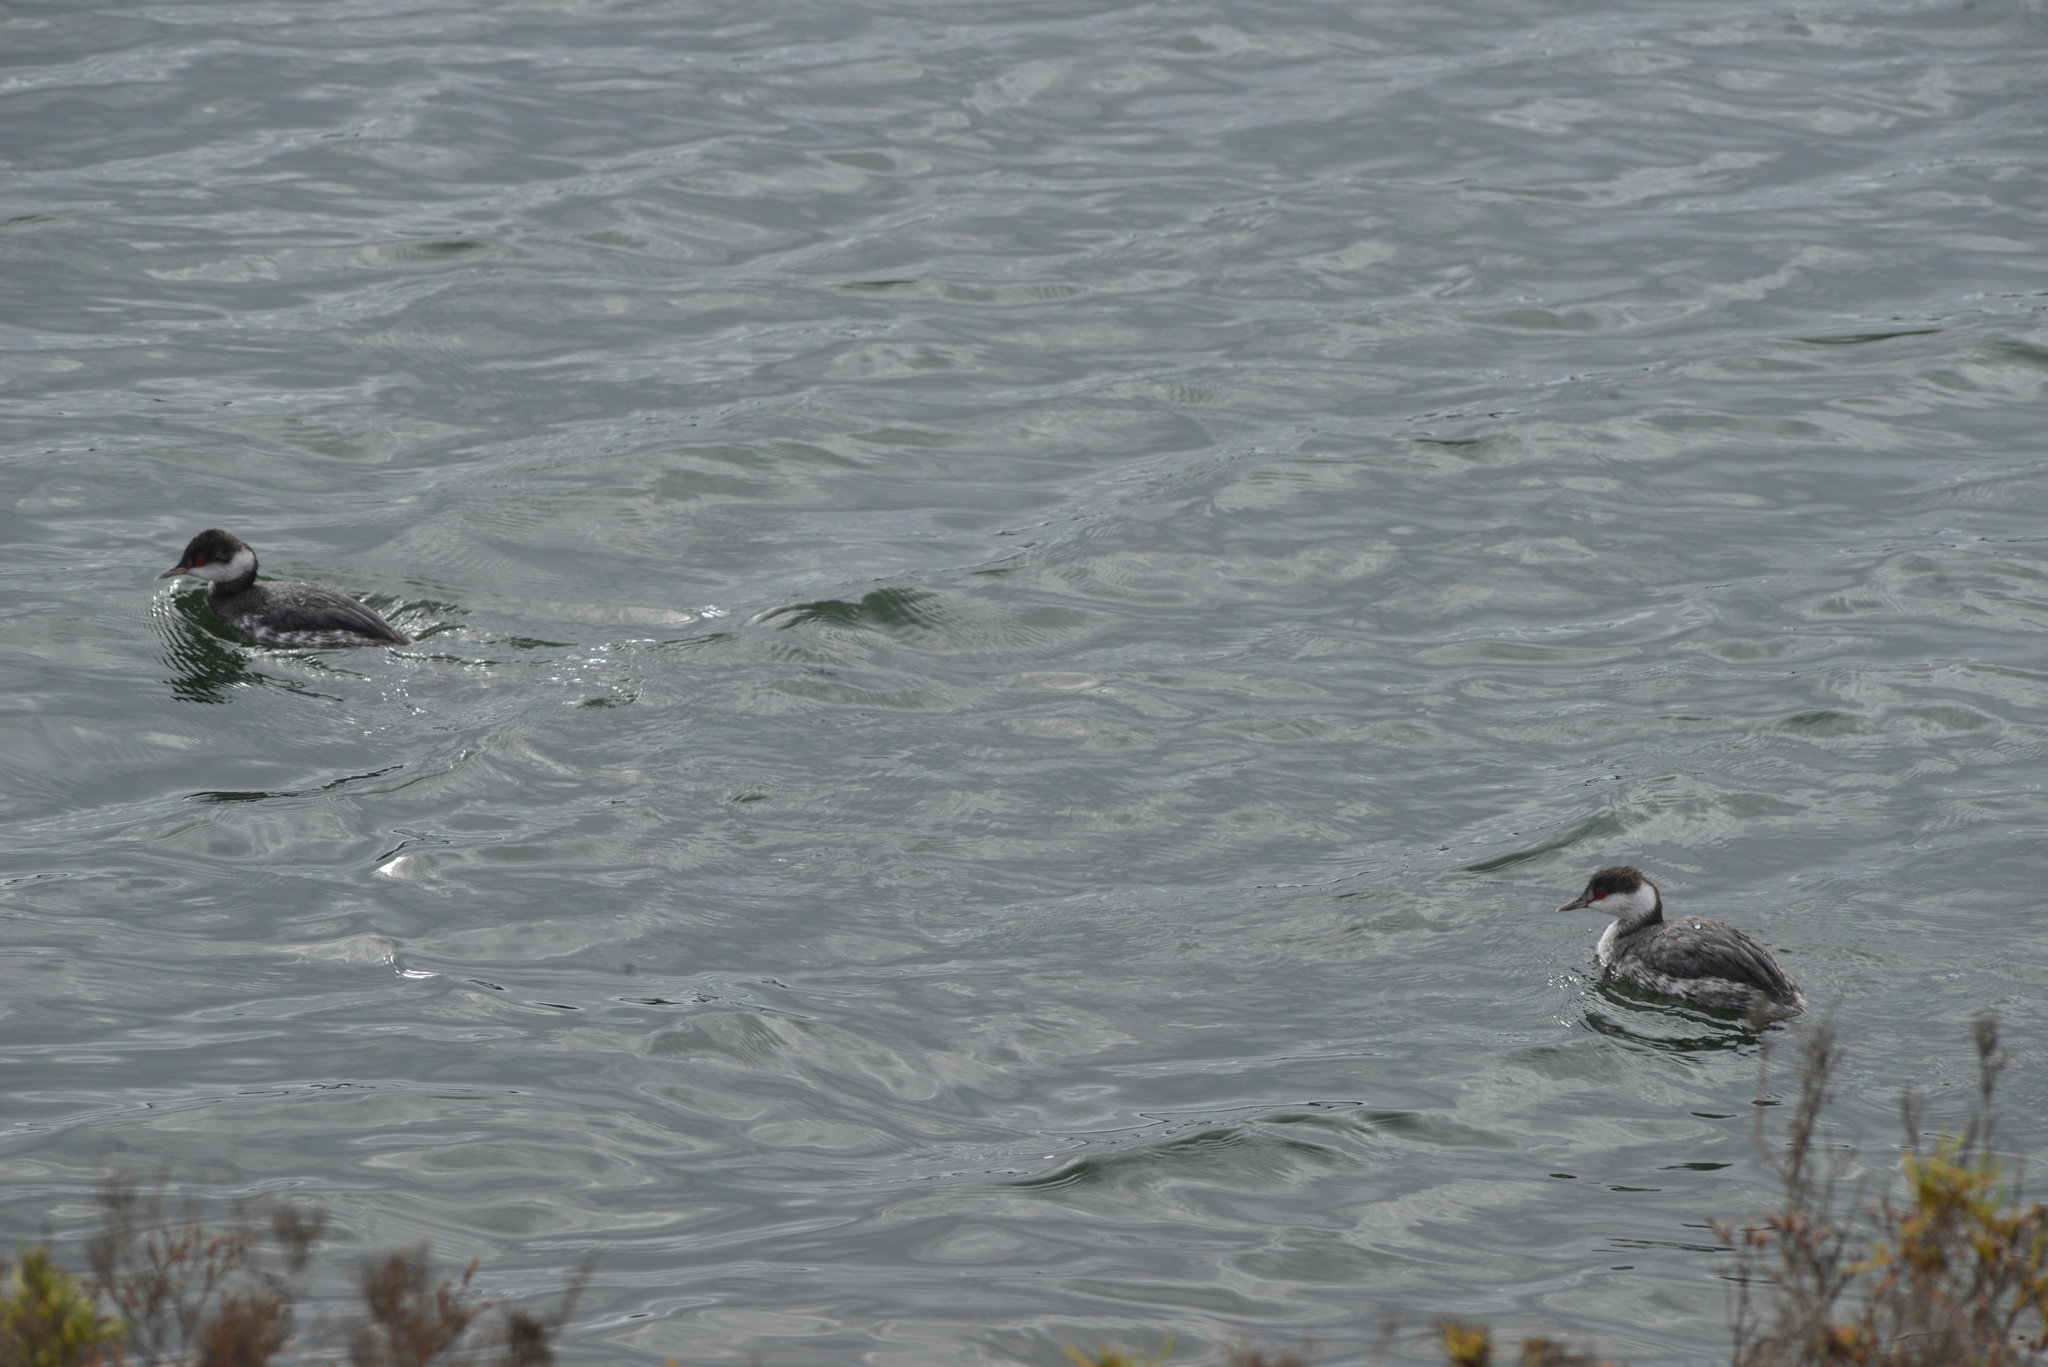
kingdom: Animalia
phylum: Chordata
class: Aves
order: Podicipediformes
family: Podicipedidae
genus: Podiceps
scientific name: Podiceps auritus
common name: Horned grebe
